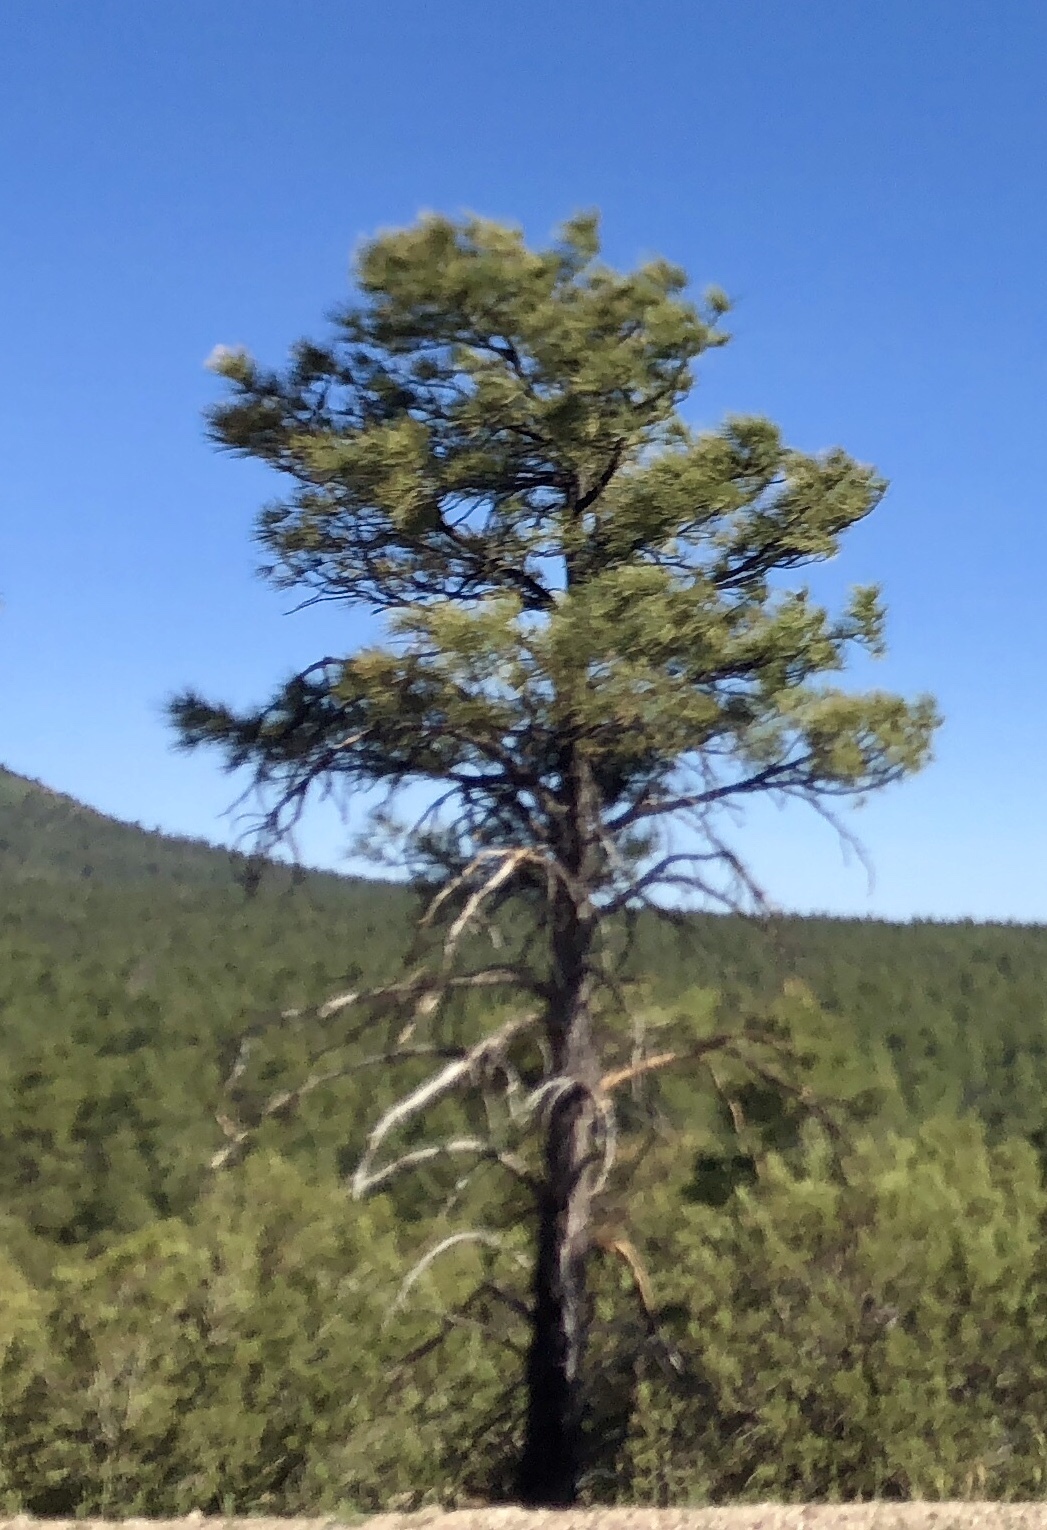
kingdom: Plantae
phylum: Tracheophyta
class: Pinopsida
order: Pinales
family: Pinaceae
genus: Pinus
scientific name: Pinus ponderosa
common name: Western yellow-pine
